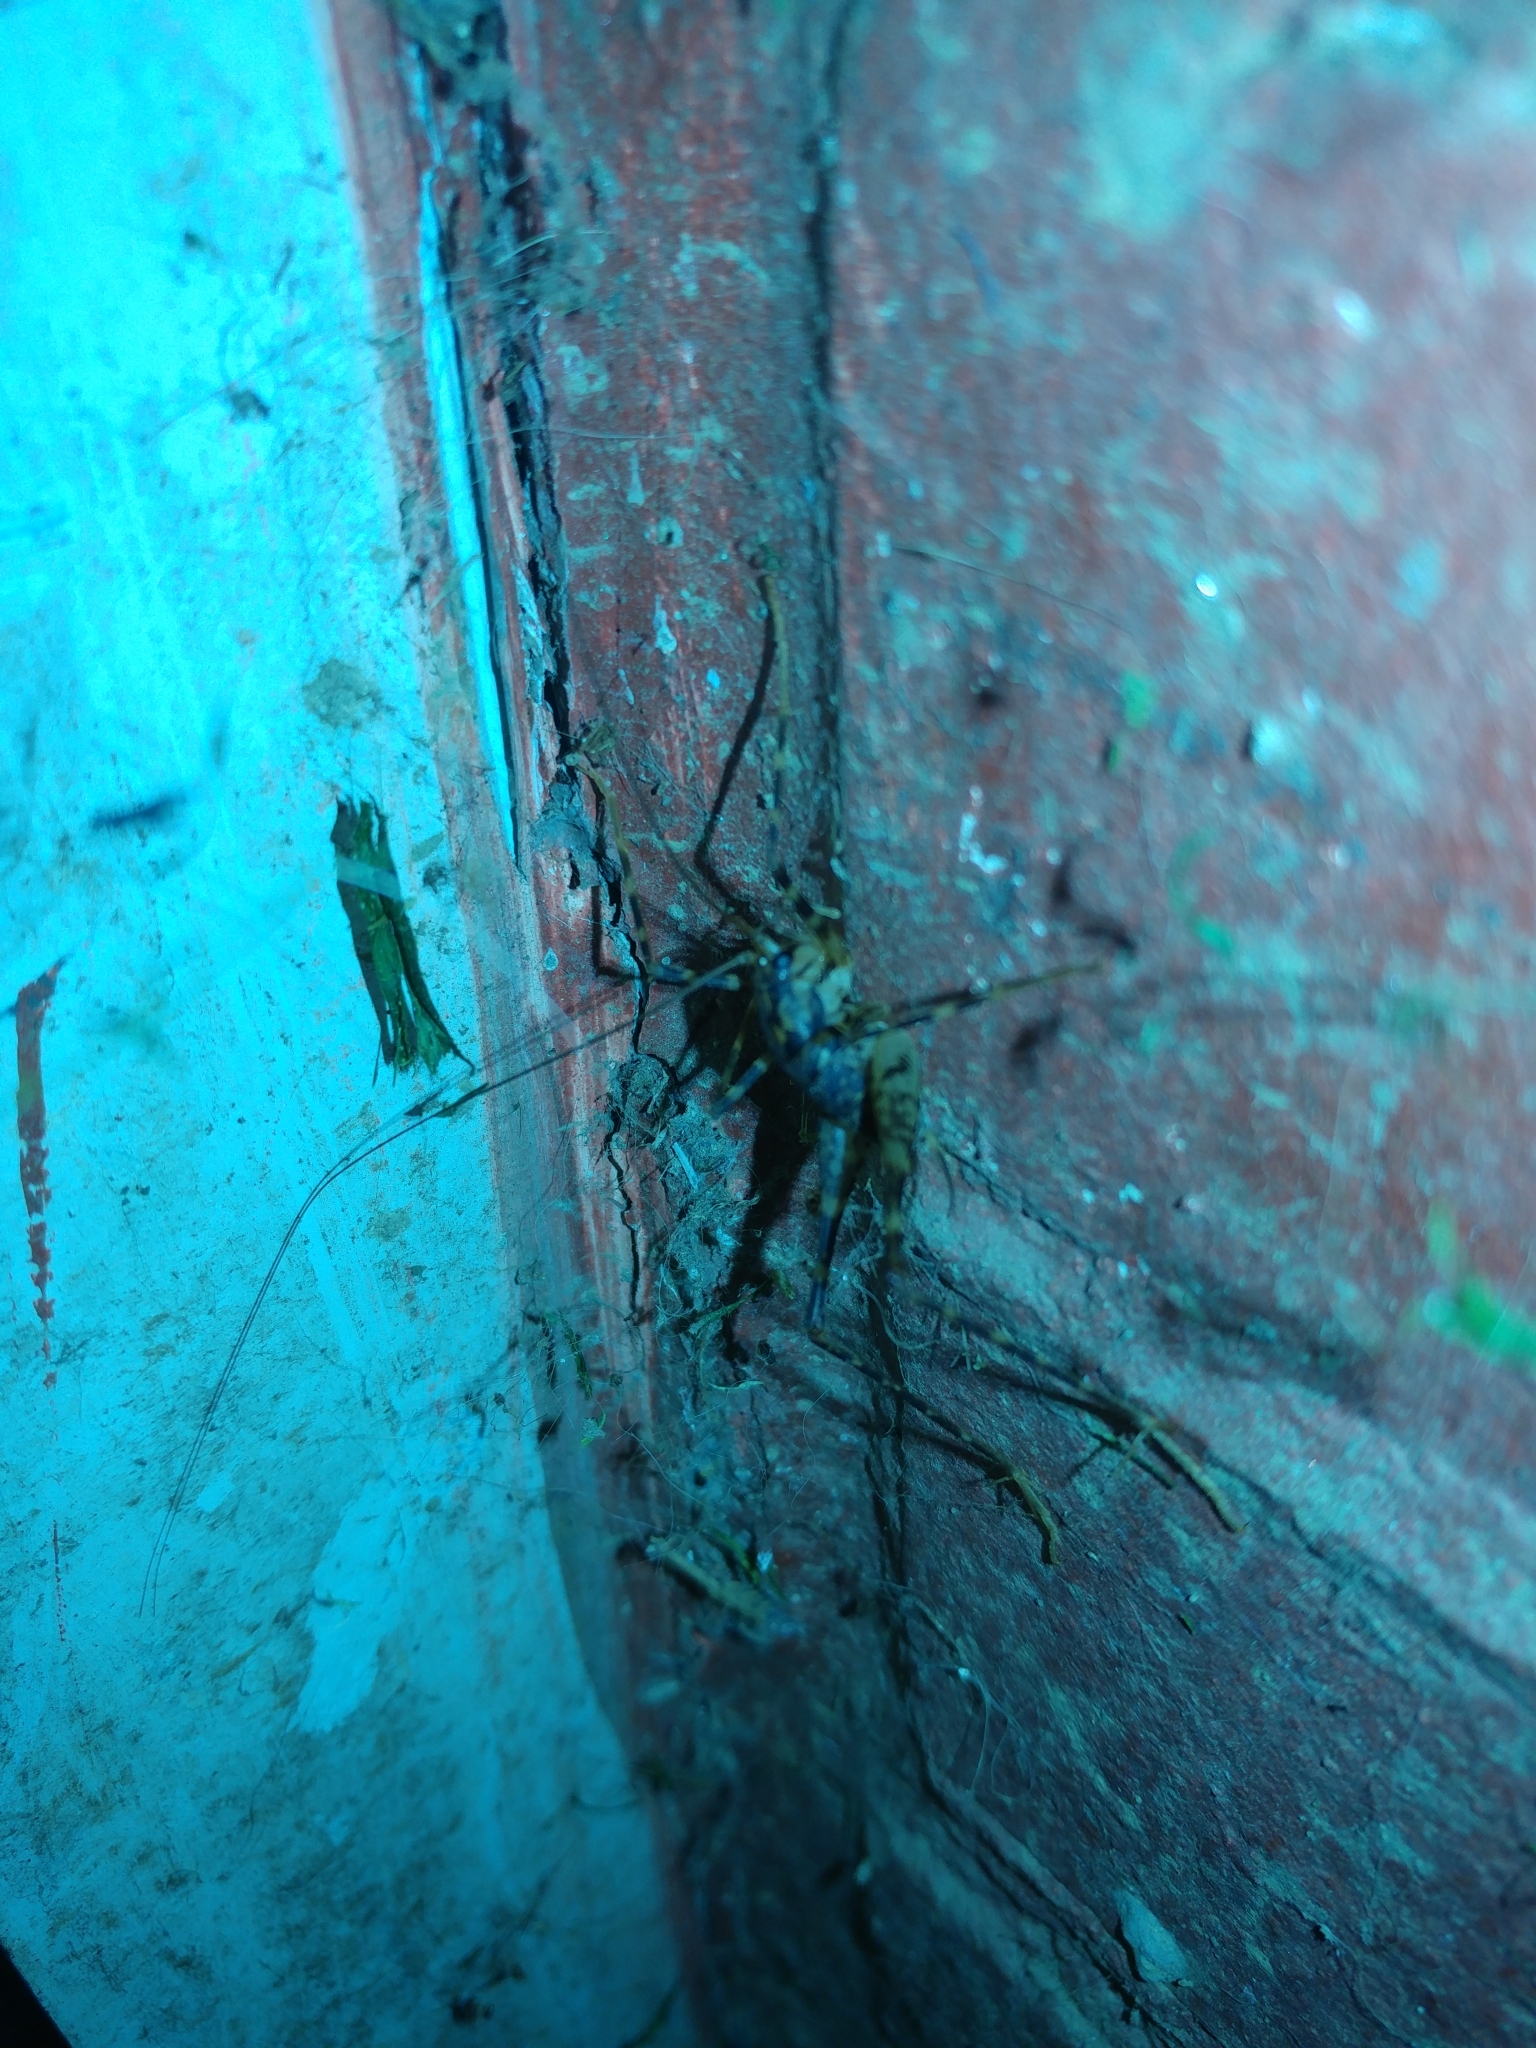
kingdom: Animalia
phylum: Arthropoda
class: Insecta
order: Orthoptera
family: Rhaphidophoridae
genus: Diestrammena
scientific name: Diestrammena japanica
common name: Japanese camel cricket
